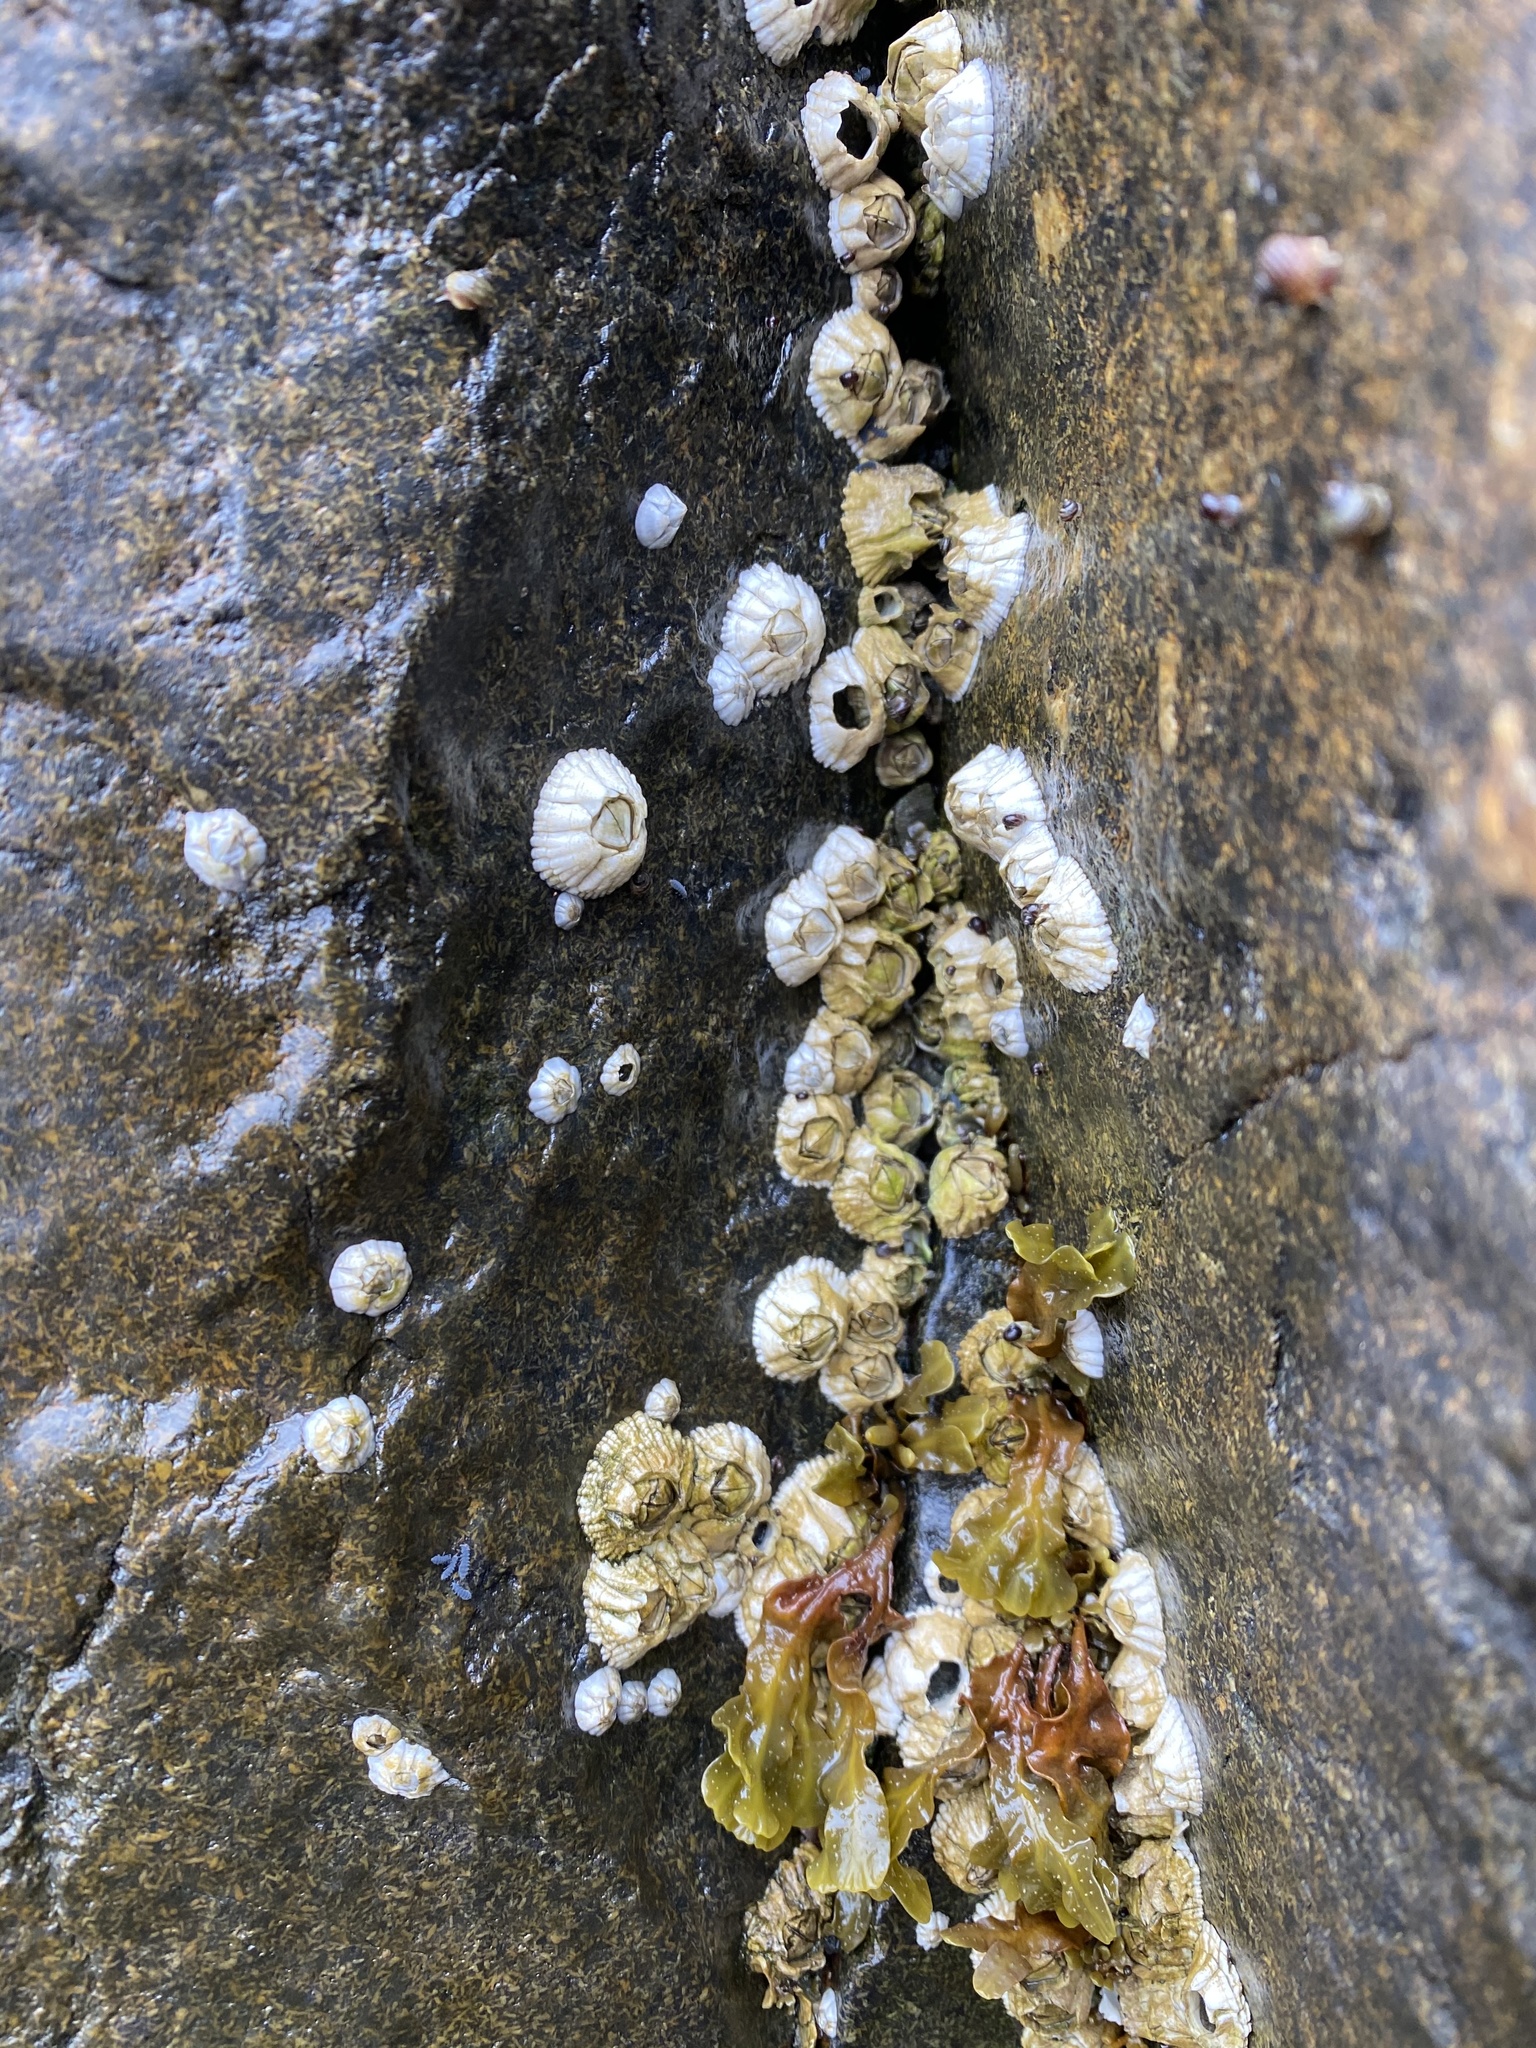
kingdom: Animalia
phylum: Arthropoda
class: Maxillopoda
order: Sessilia
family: Archaeobalanidae
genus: Semibalanus
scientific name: Semibalanus balanoides
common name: Acorn barnacle
